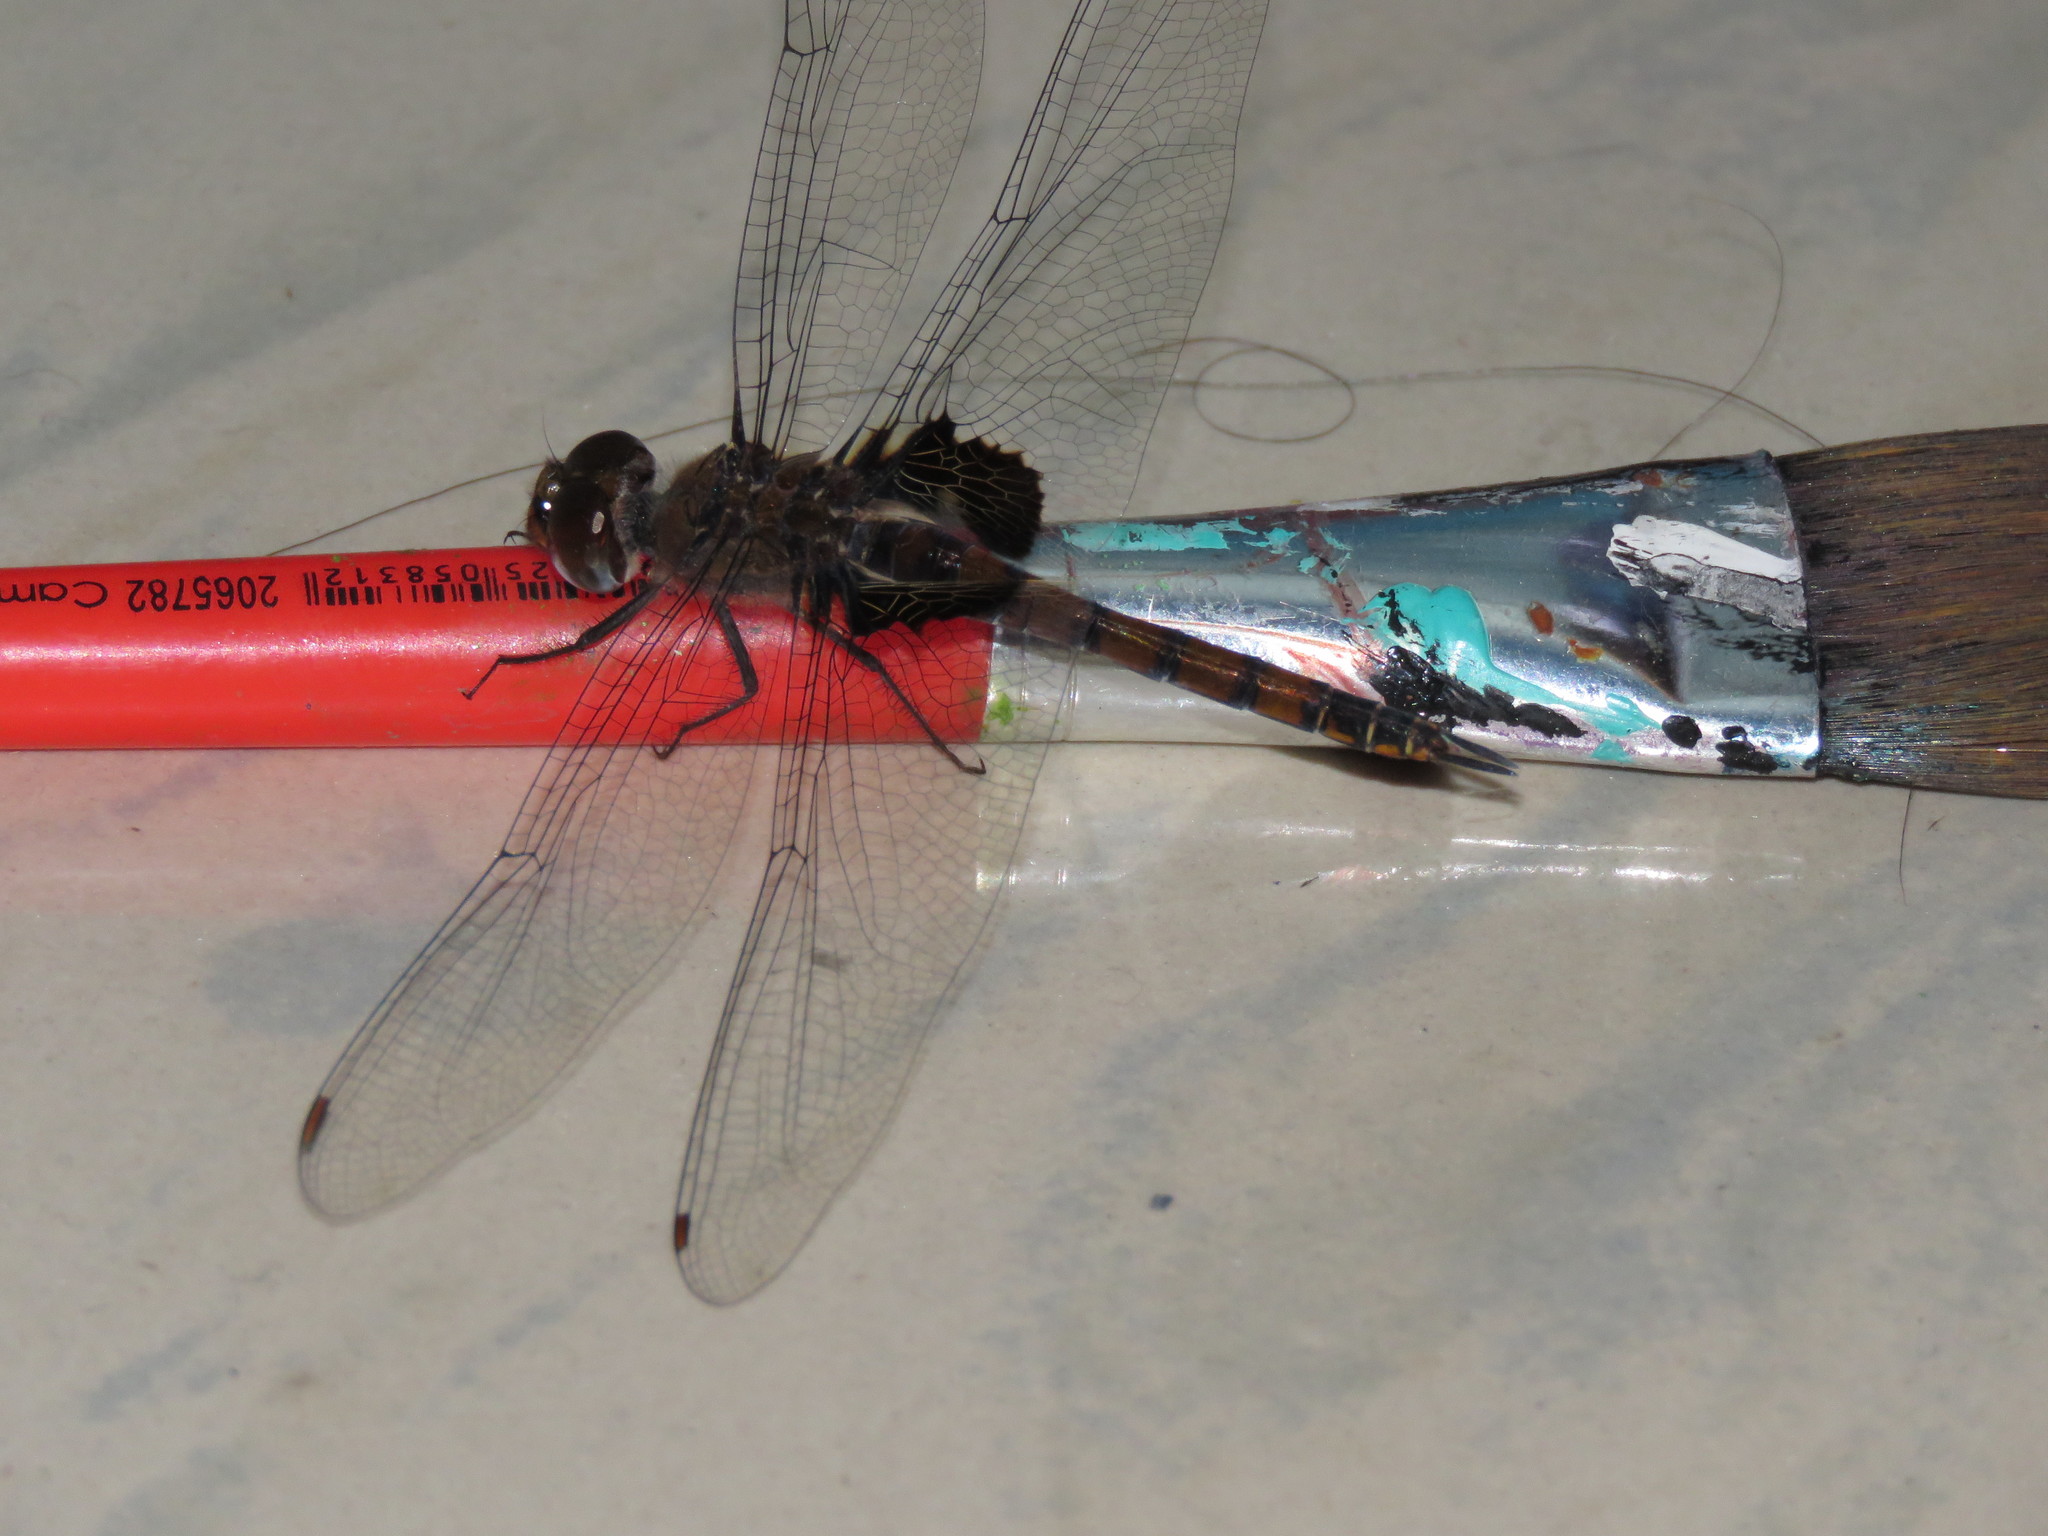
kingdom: Animalia
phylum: Arthropoda
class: Insecta
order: Odonata
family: Libellulidae
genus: Tramea
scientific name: Tramea limbata
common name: Ferruginous glider
